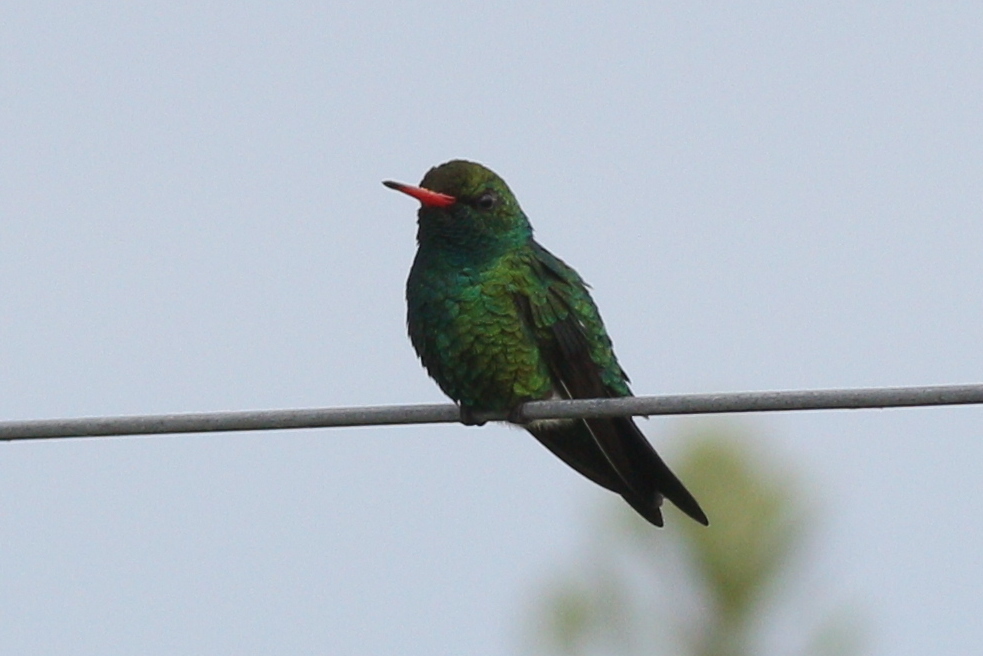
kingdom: Animalia
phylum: Chordata
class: Aves
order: Apodiformes
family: Trochilidae
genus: Chlorostilbon
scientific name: Chlorostilbon lucidus
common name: Glittering-bellied emerald
